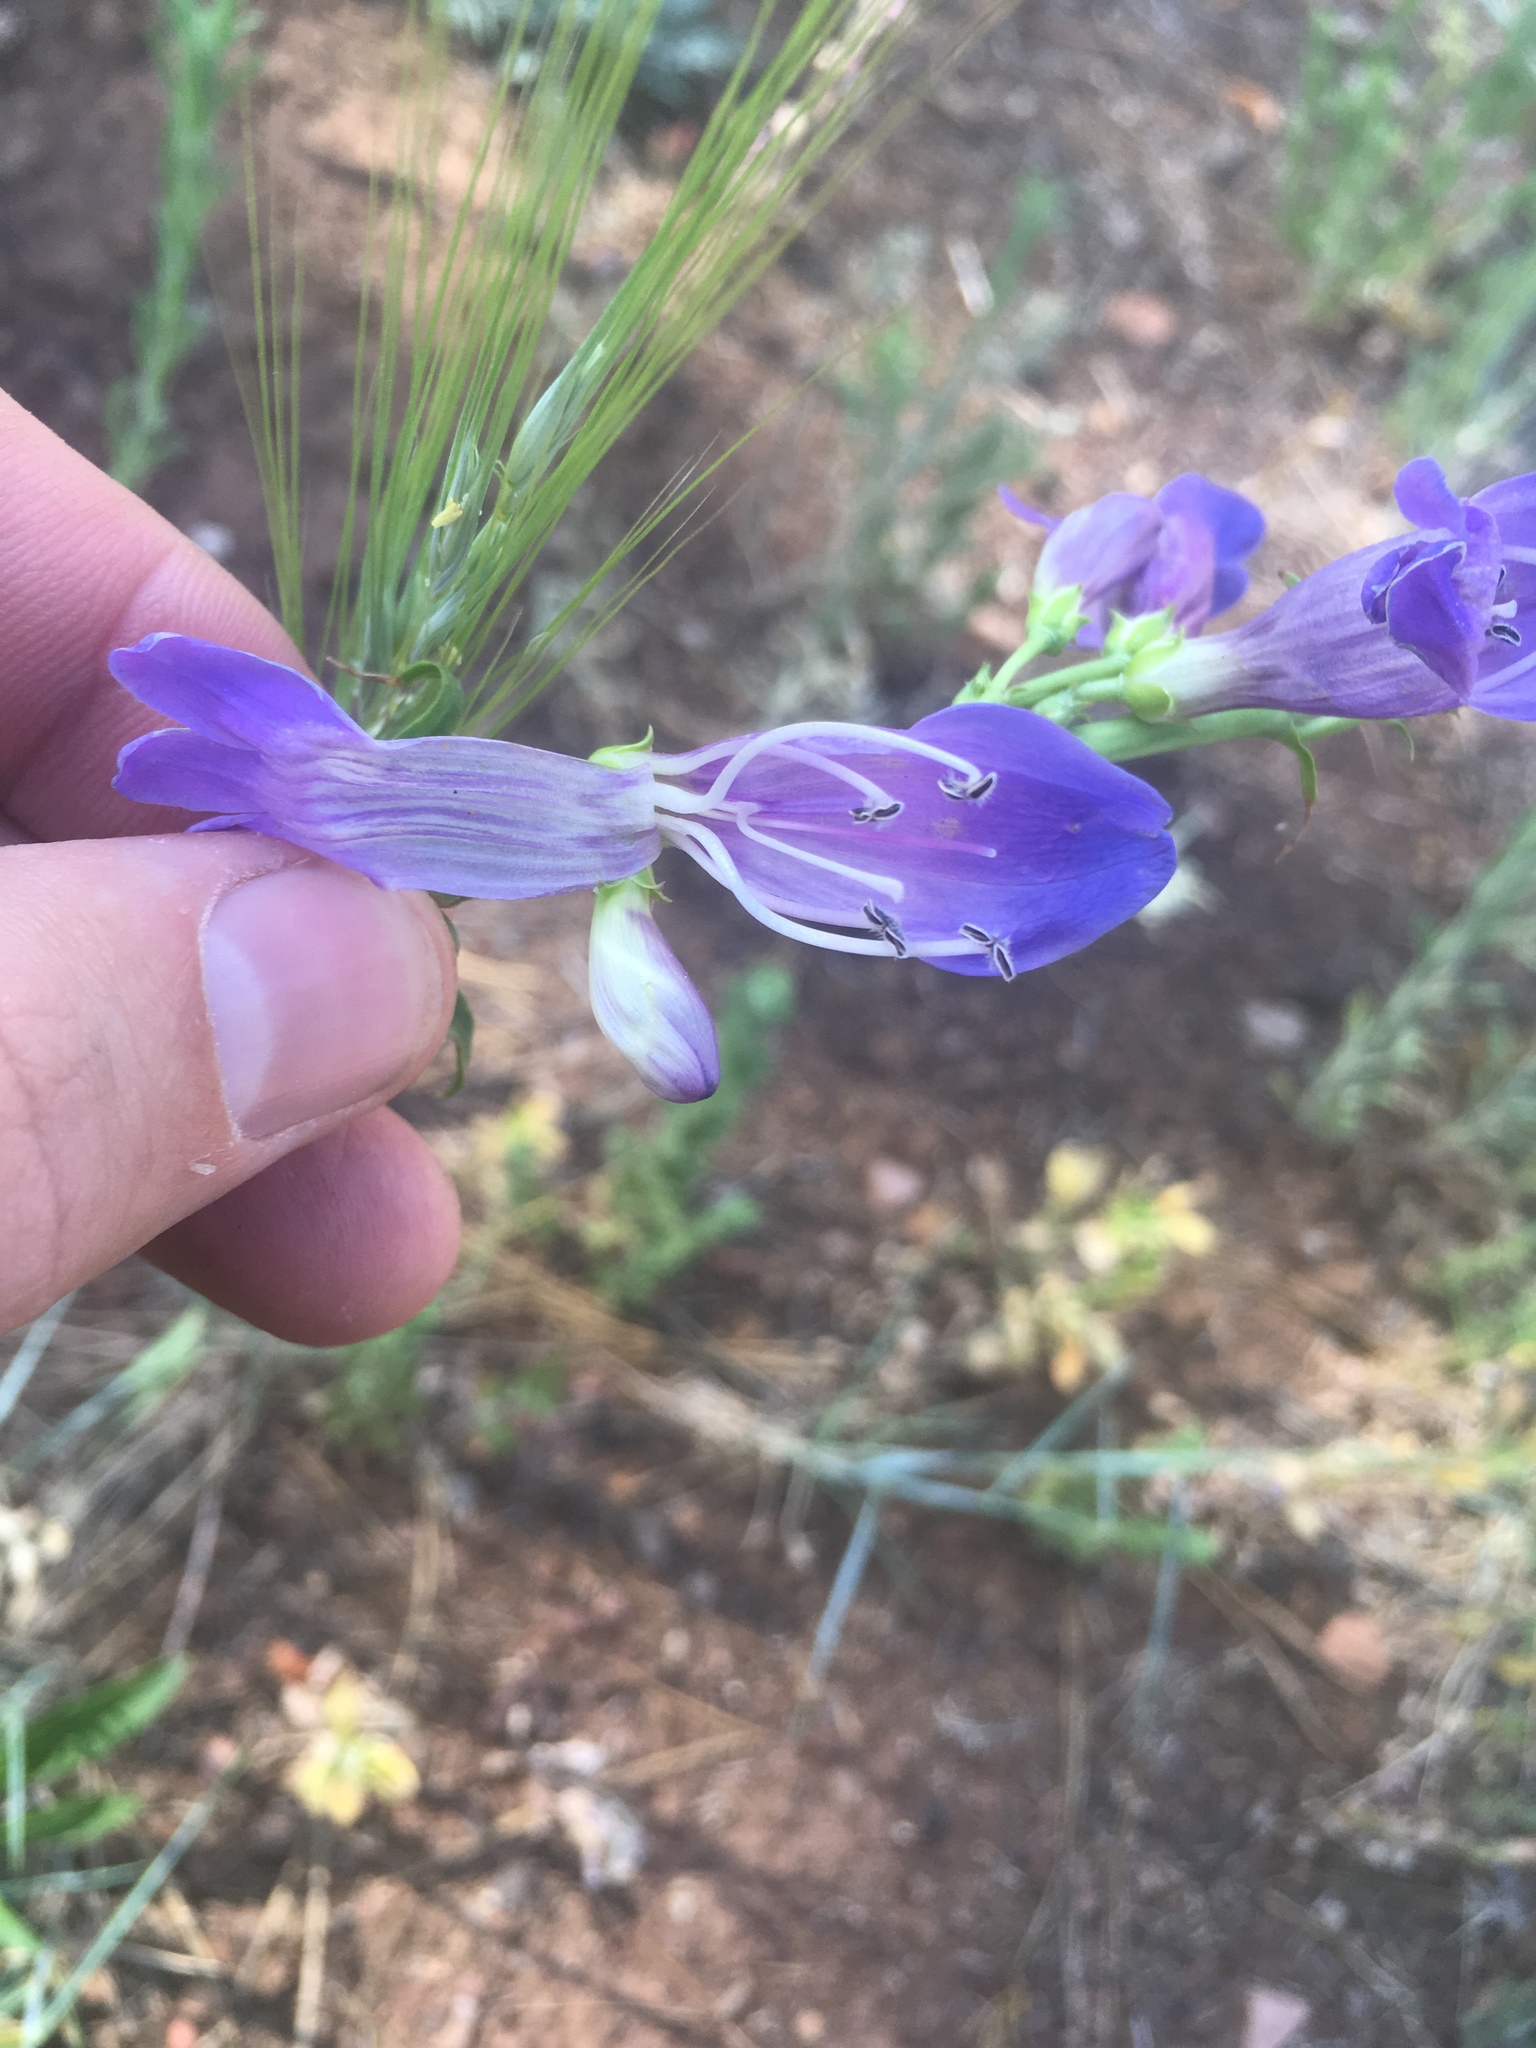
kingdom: Plantae
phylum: Tracheophyta
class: Magnoliopsida
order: Lamiales
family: Plantaginaceae
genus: Penstemon
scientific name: Penstemon strictus
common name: Rocky mountain penstemon
